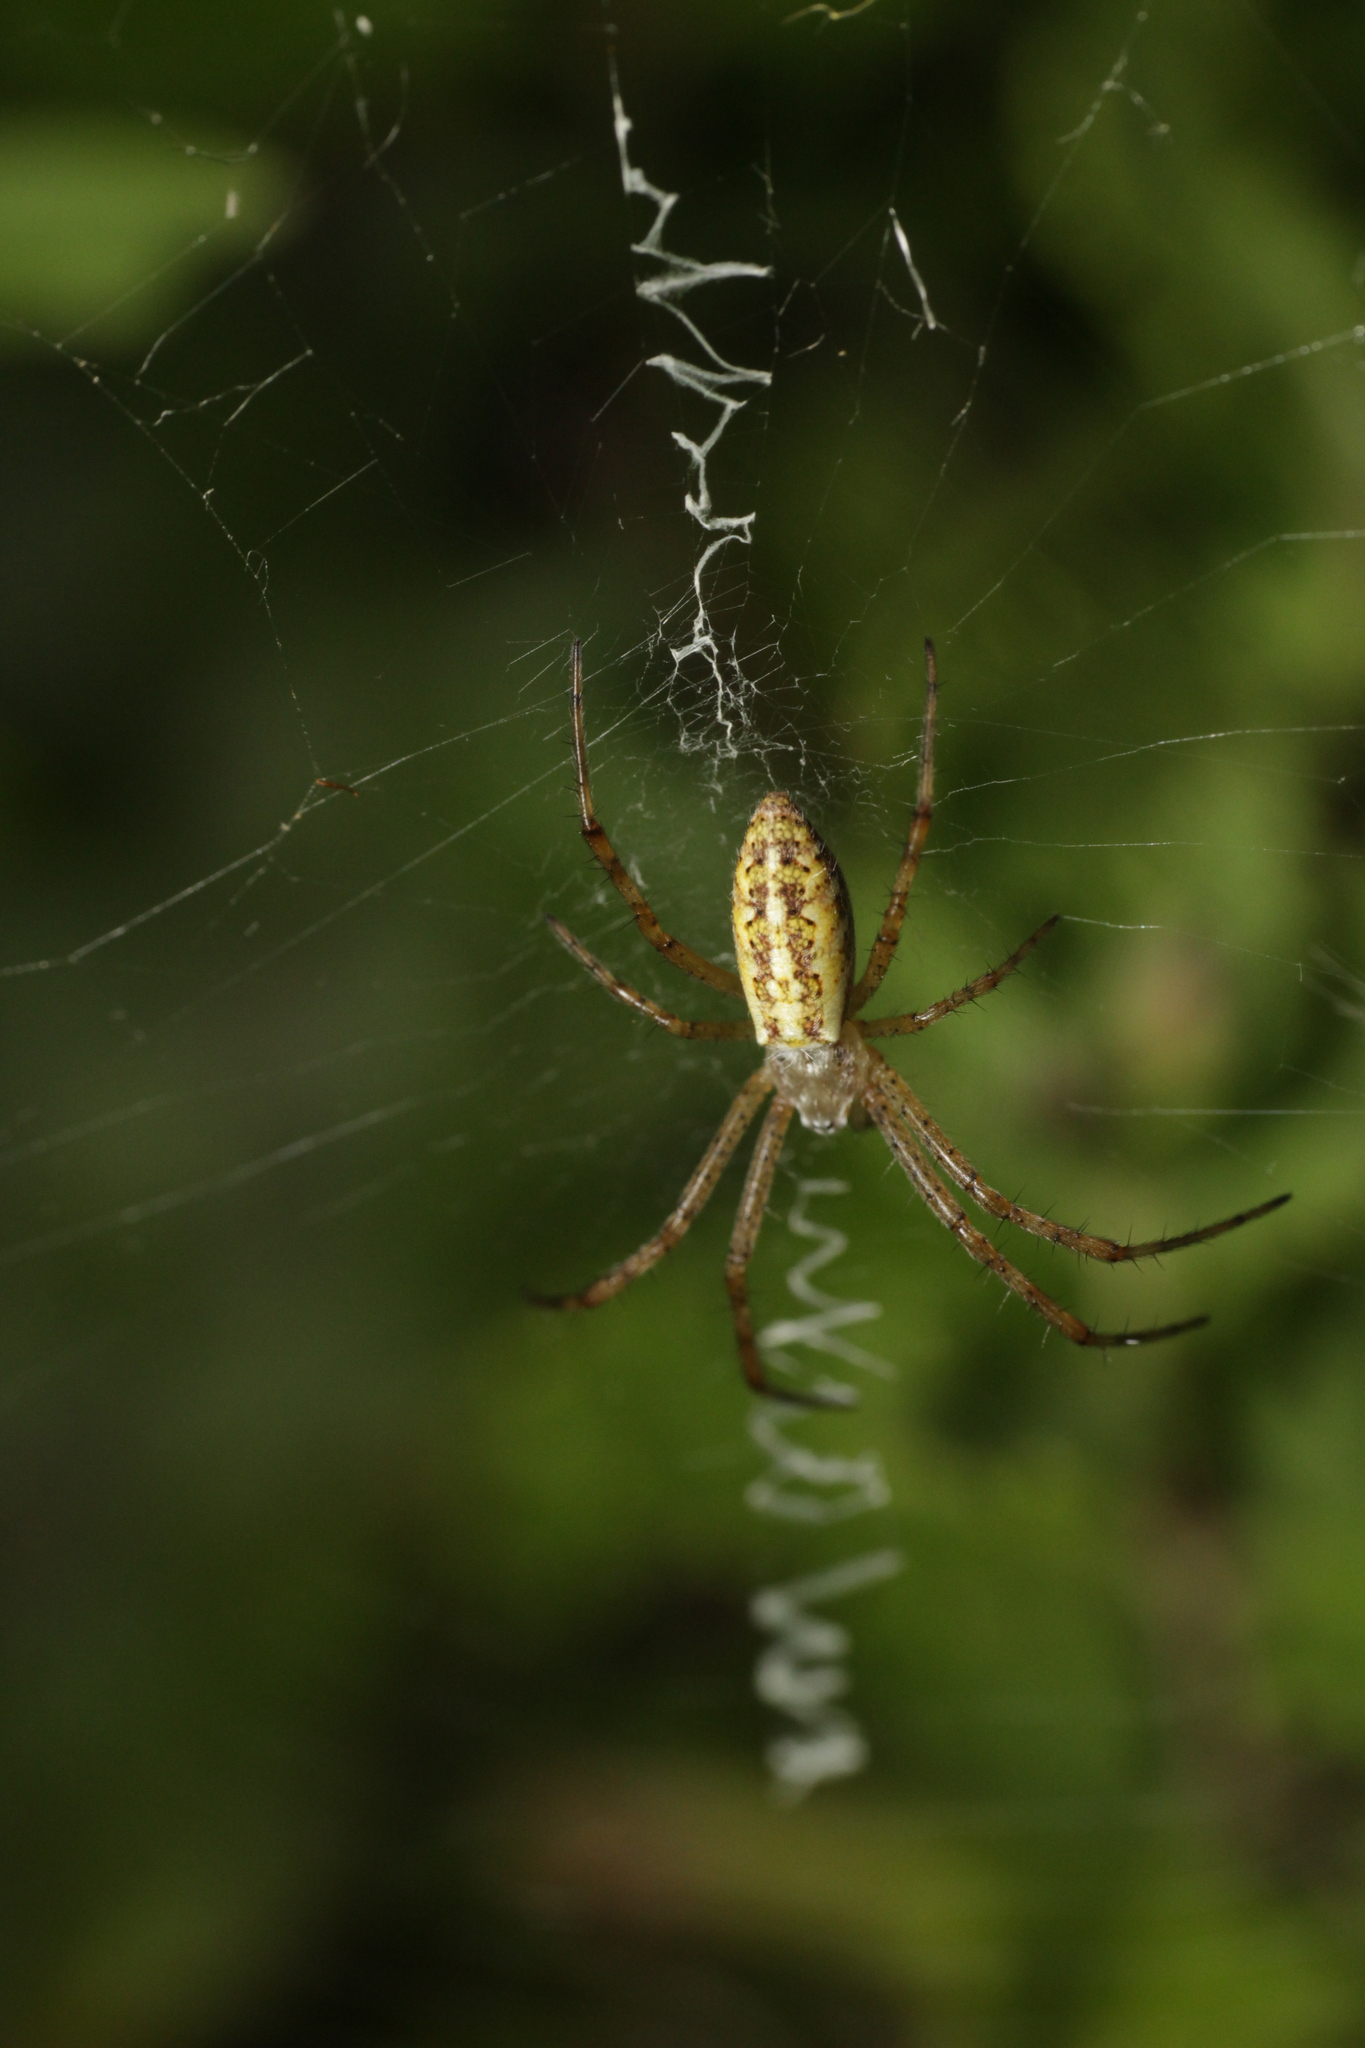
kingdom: Animalia
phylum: Arthropoda
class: Arachnida
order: Araneae
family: Araneidae
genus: Argiope
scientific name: Argiope bruennichi
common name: Wasp spider
